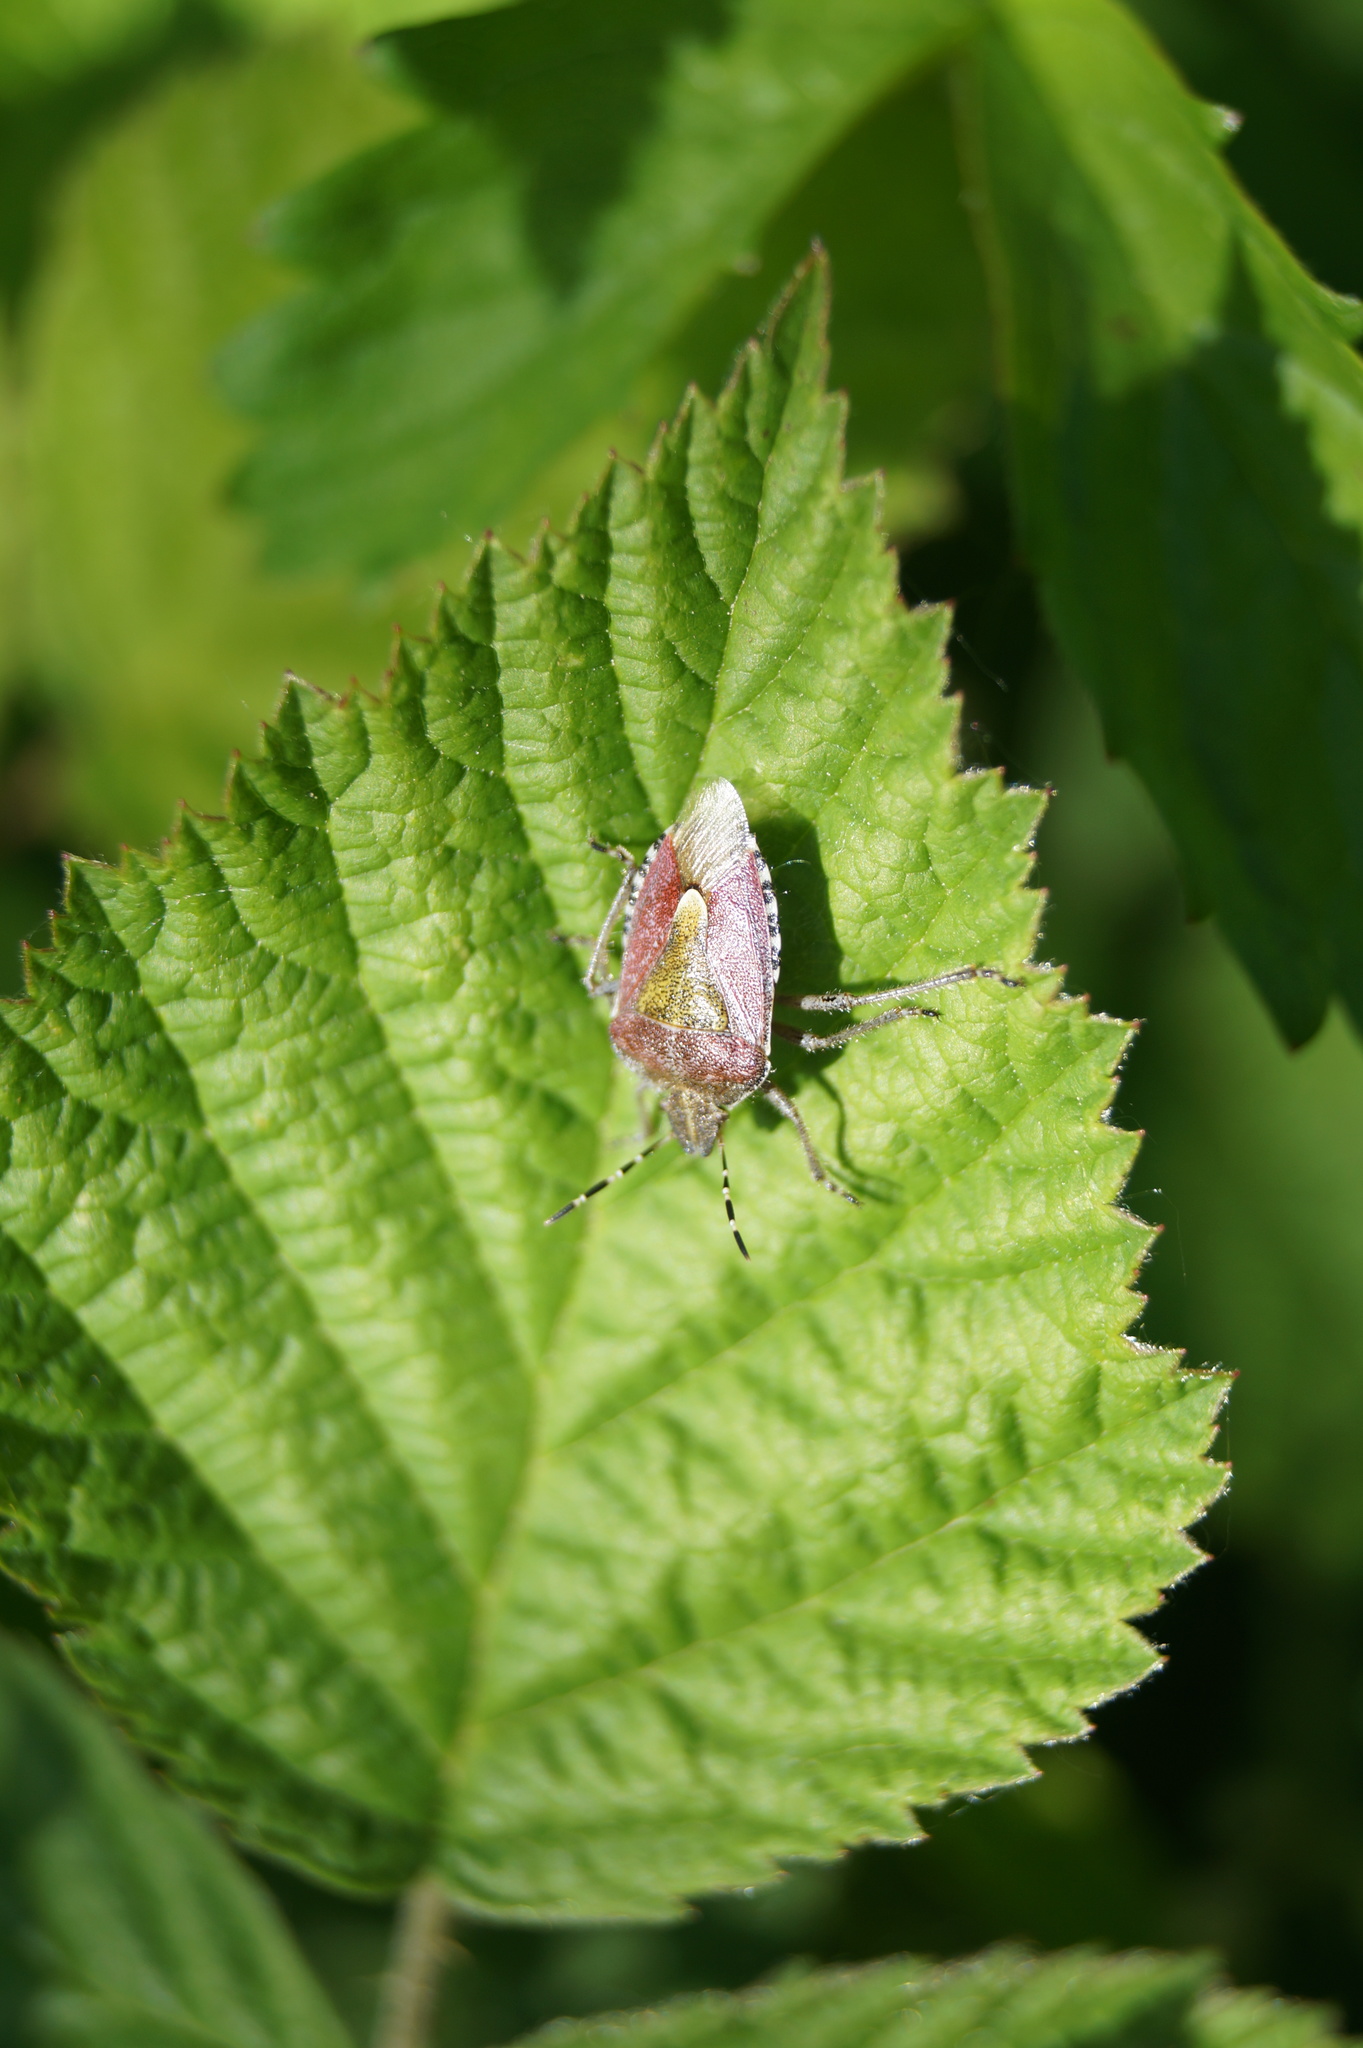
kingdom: Animalia
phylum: Arthropoda
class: Insecta
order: Hemiptera
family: Pentatomidae
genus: Dolycoris
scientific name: Dolycoris baccarum
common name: Sloe bug
